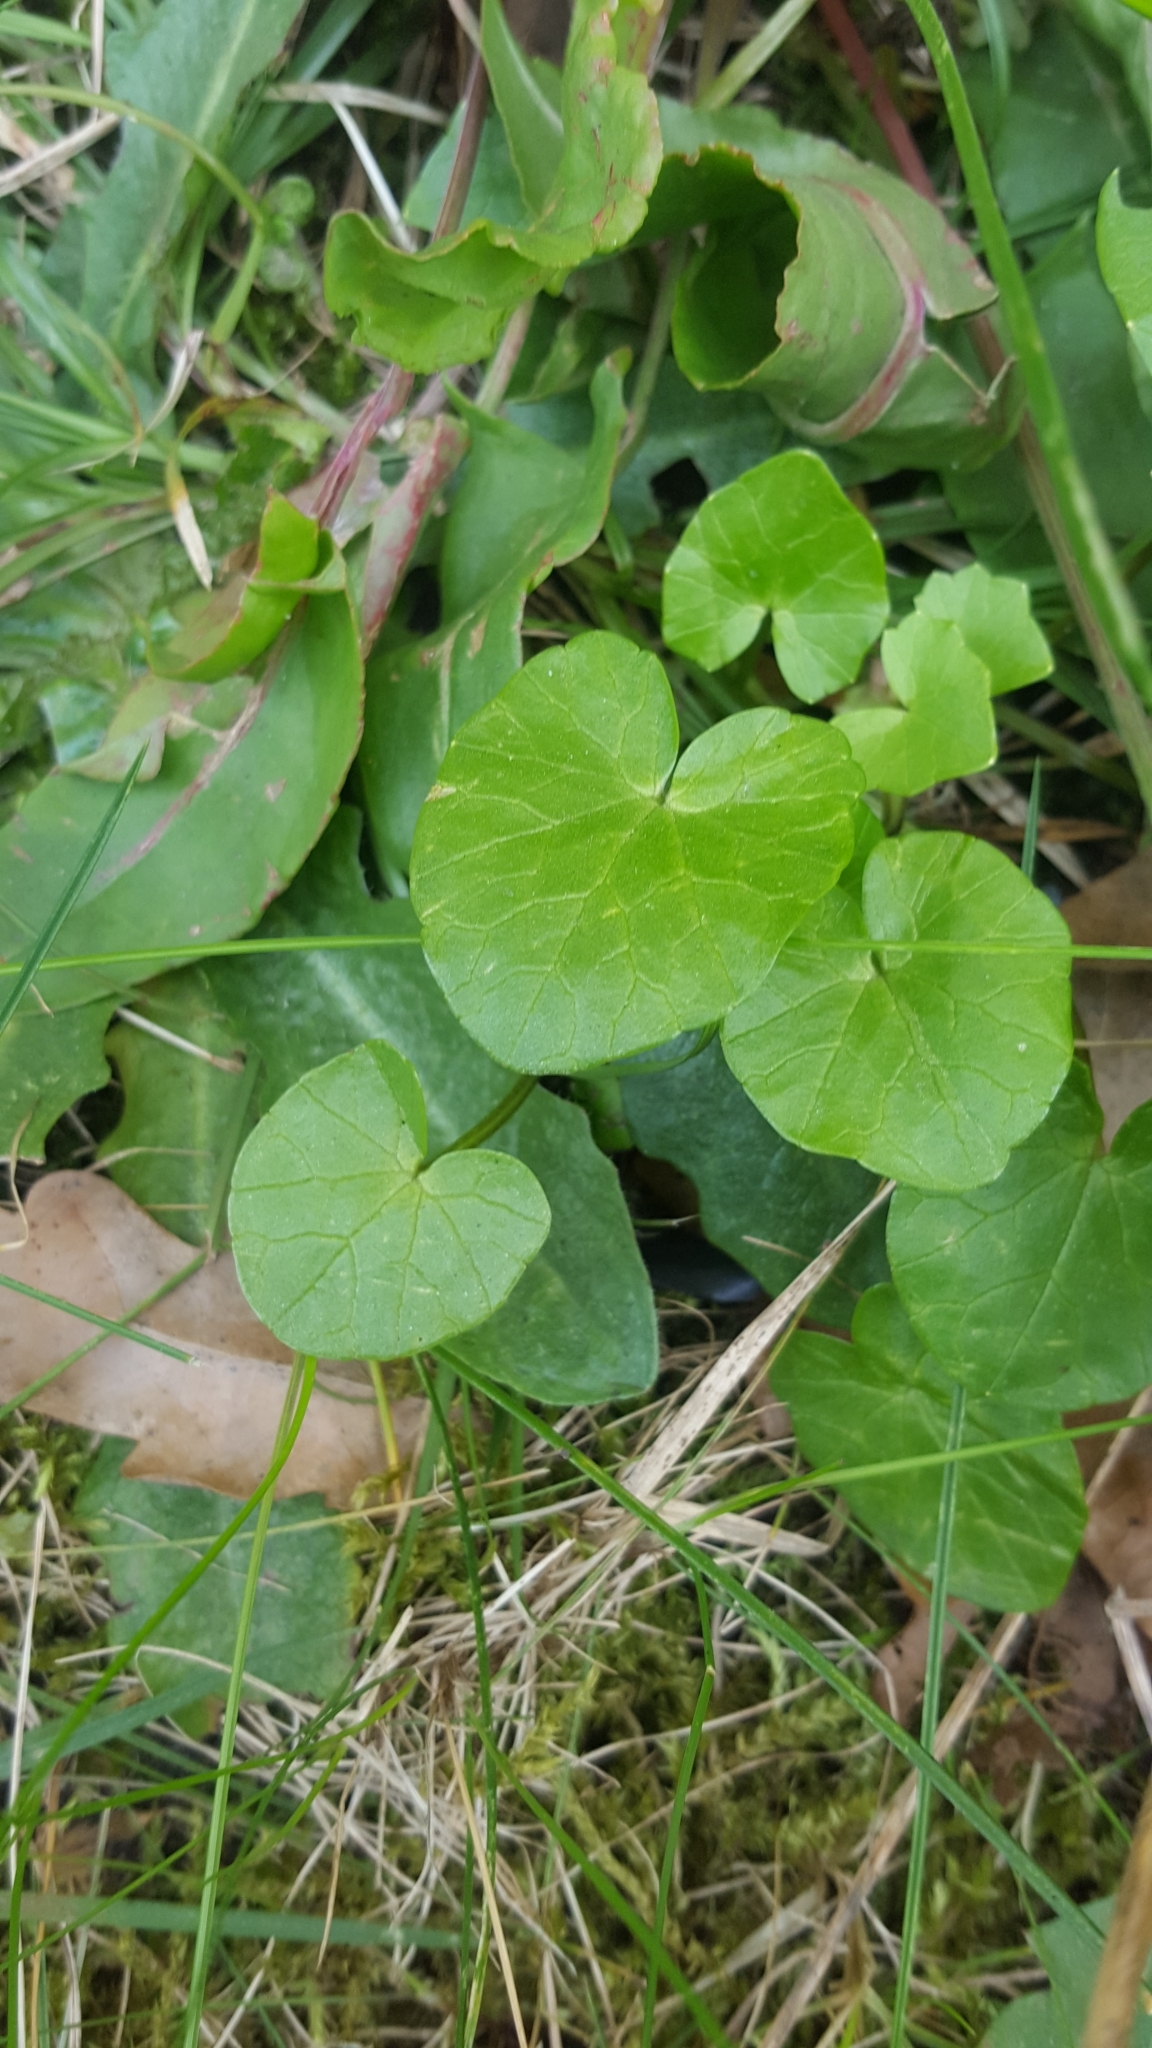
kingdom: Plantae
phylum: Tracheophyta
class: Magnoliopsida
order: Ranunculales
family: Ranunculaceae
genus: Ficaria
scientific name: Ficaria verna
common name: Lesser celandine
